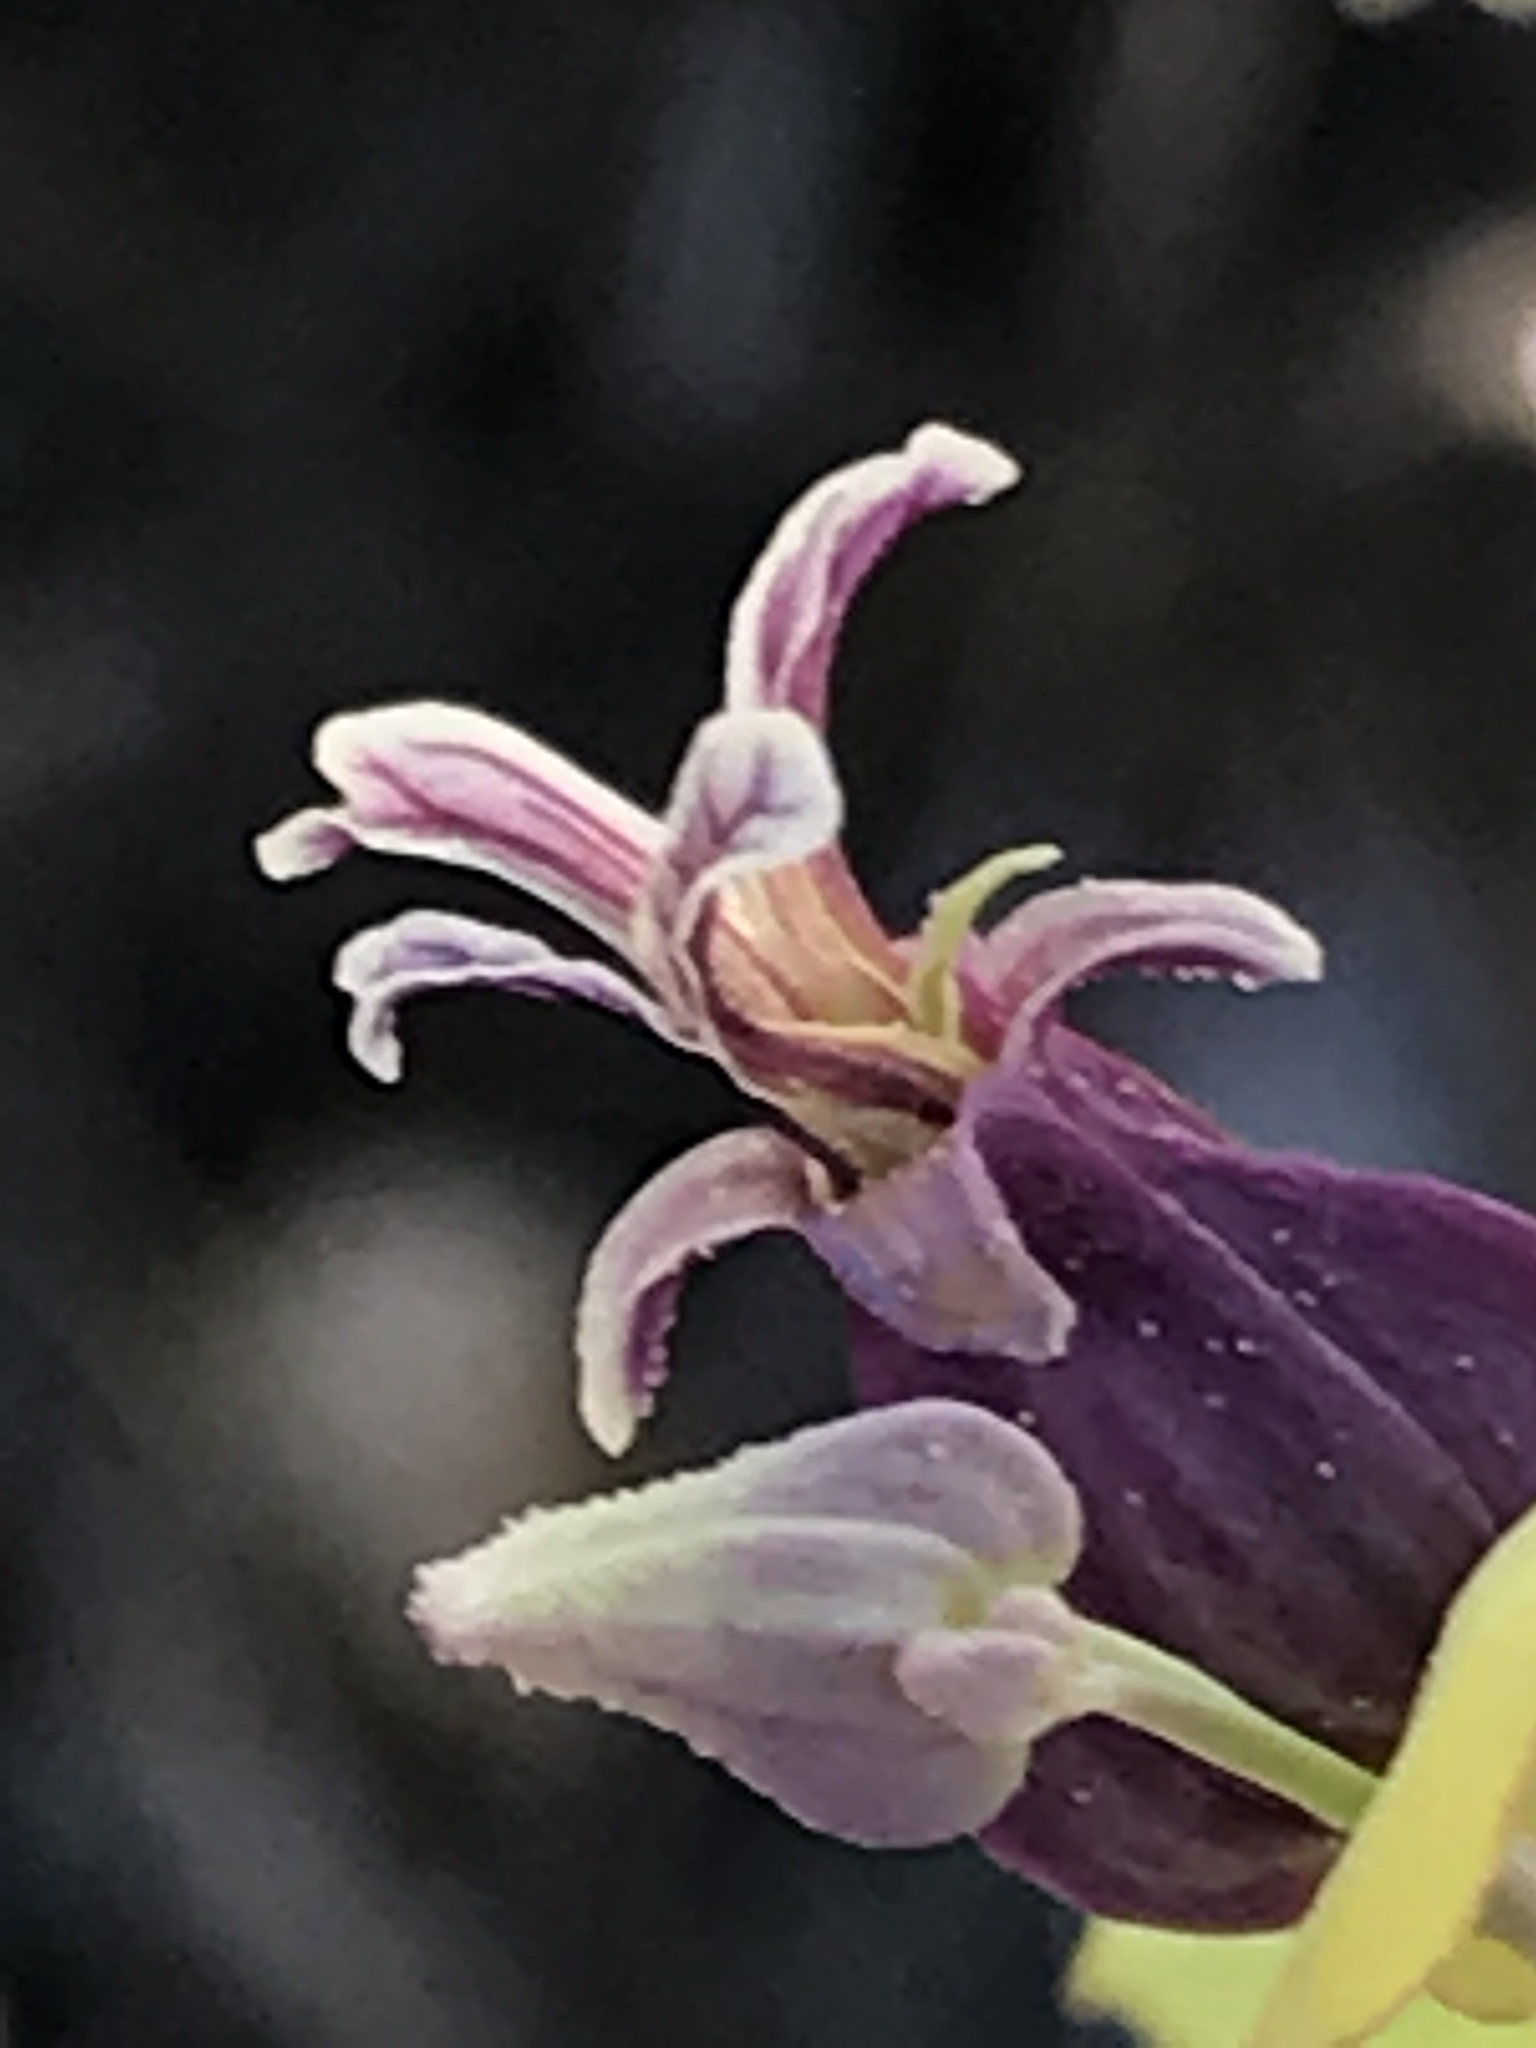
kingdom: Plantae
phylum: Tracheophyta
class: Magnoliopsida
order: Brassicales
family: Brassicaceae
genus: Streptanthus
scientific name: Streptanthus tortuosus
